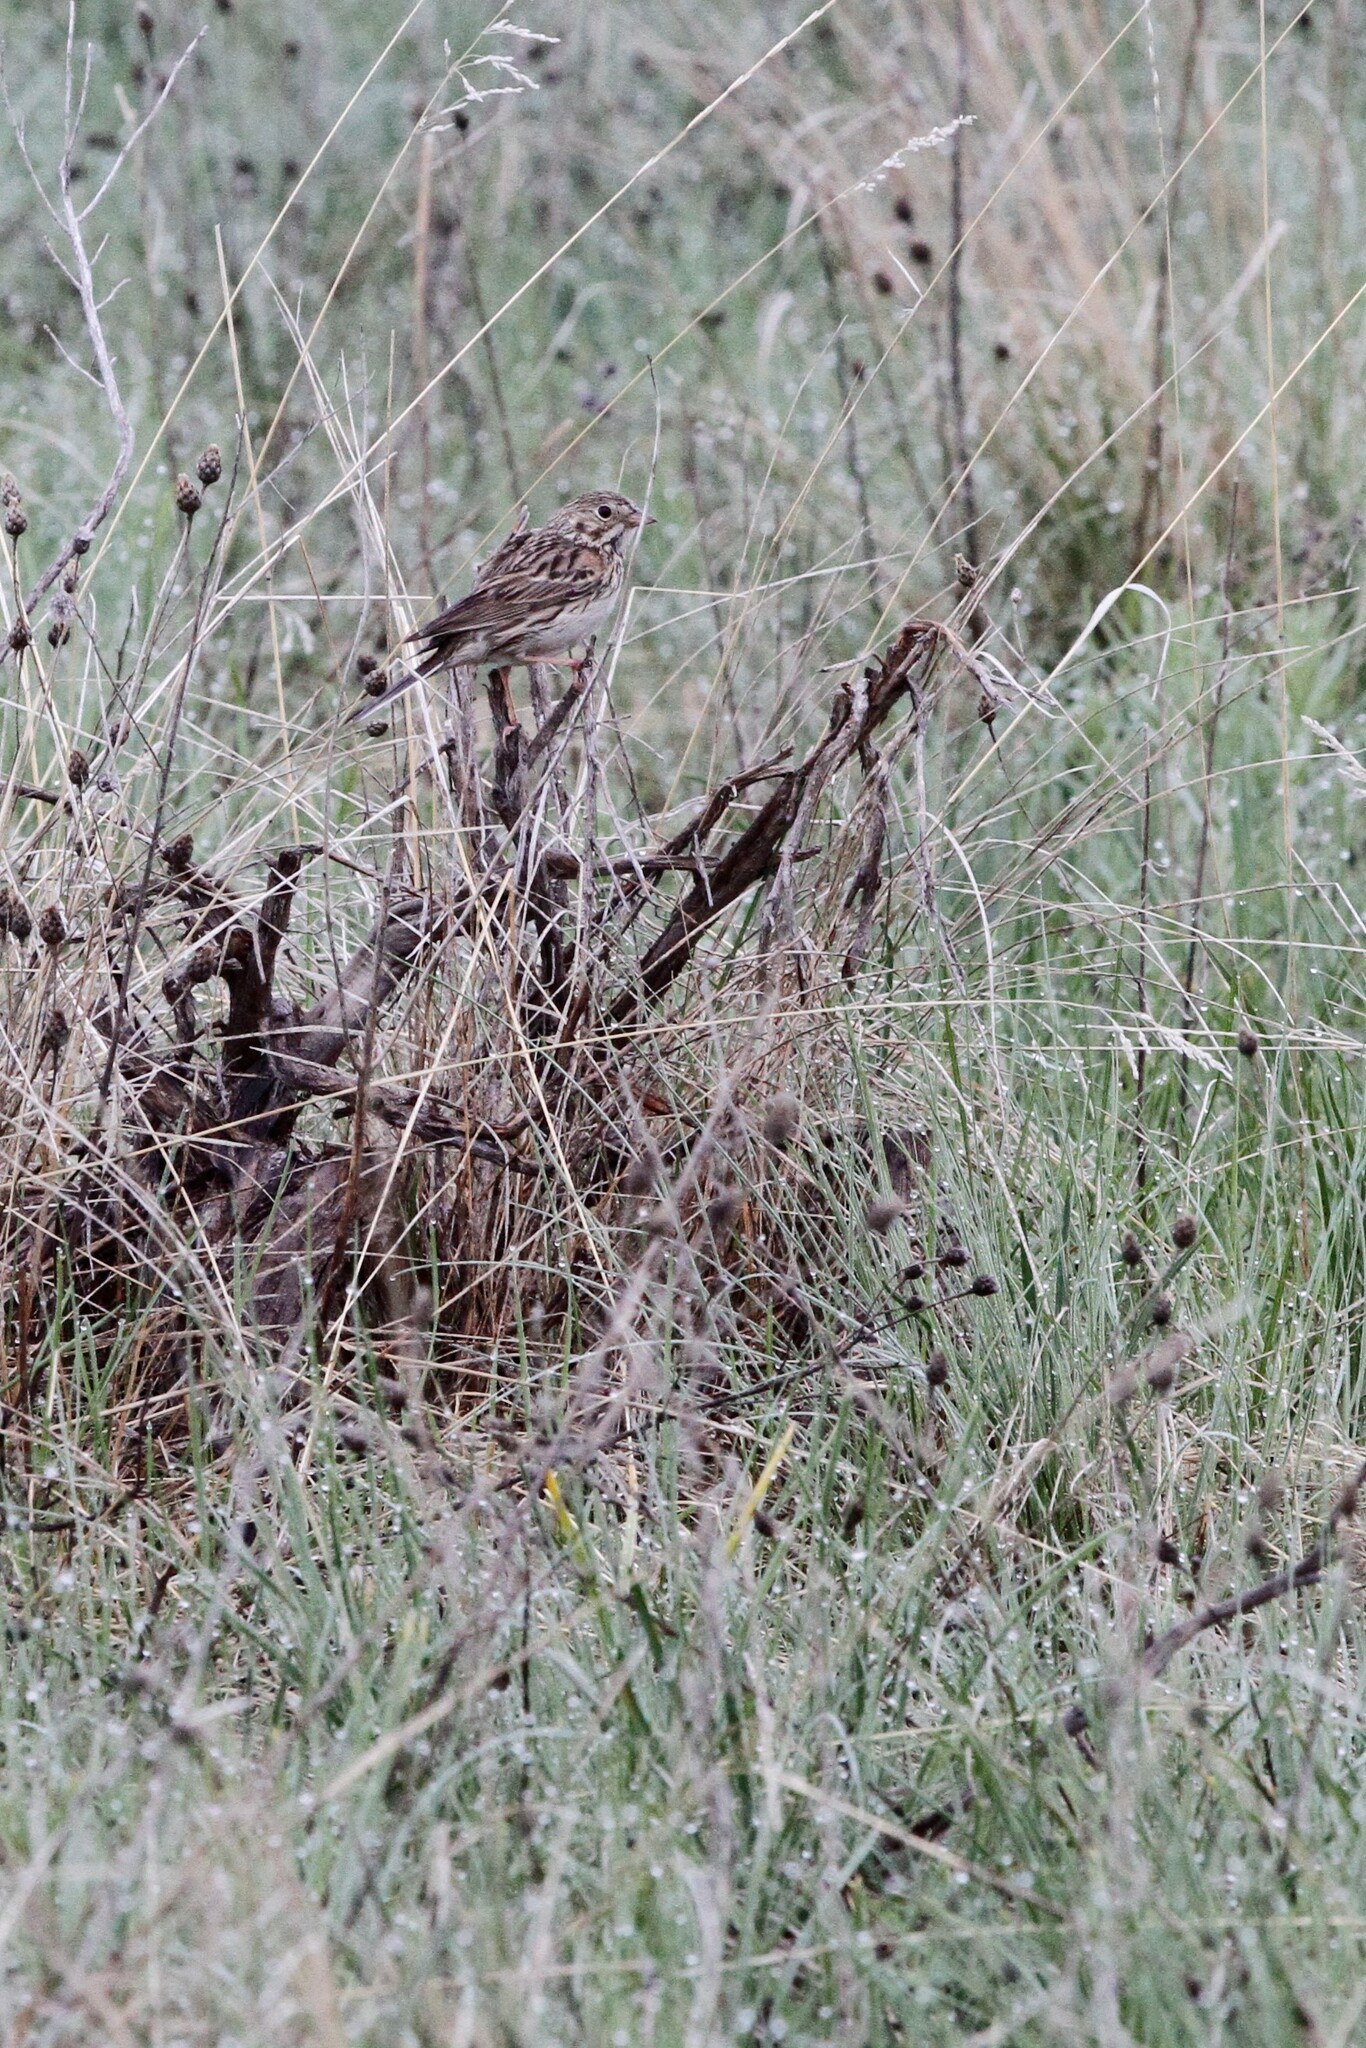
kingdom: Animalia
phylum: Chordata
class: Aves
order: Passeriformes
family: Passerellidae
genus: Pooecetes
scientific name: Pooecetes gramineus
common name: Vesper sparrow
